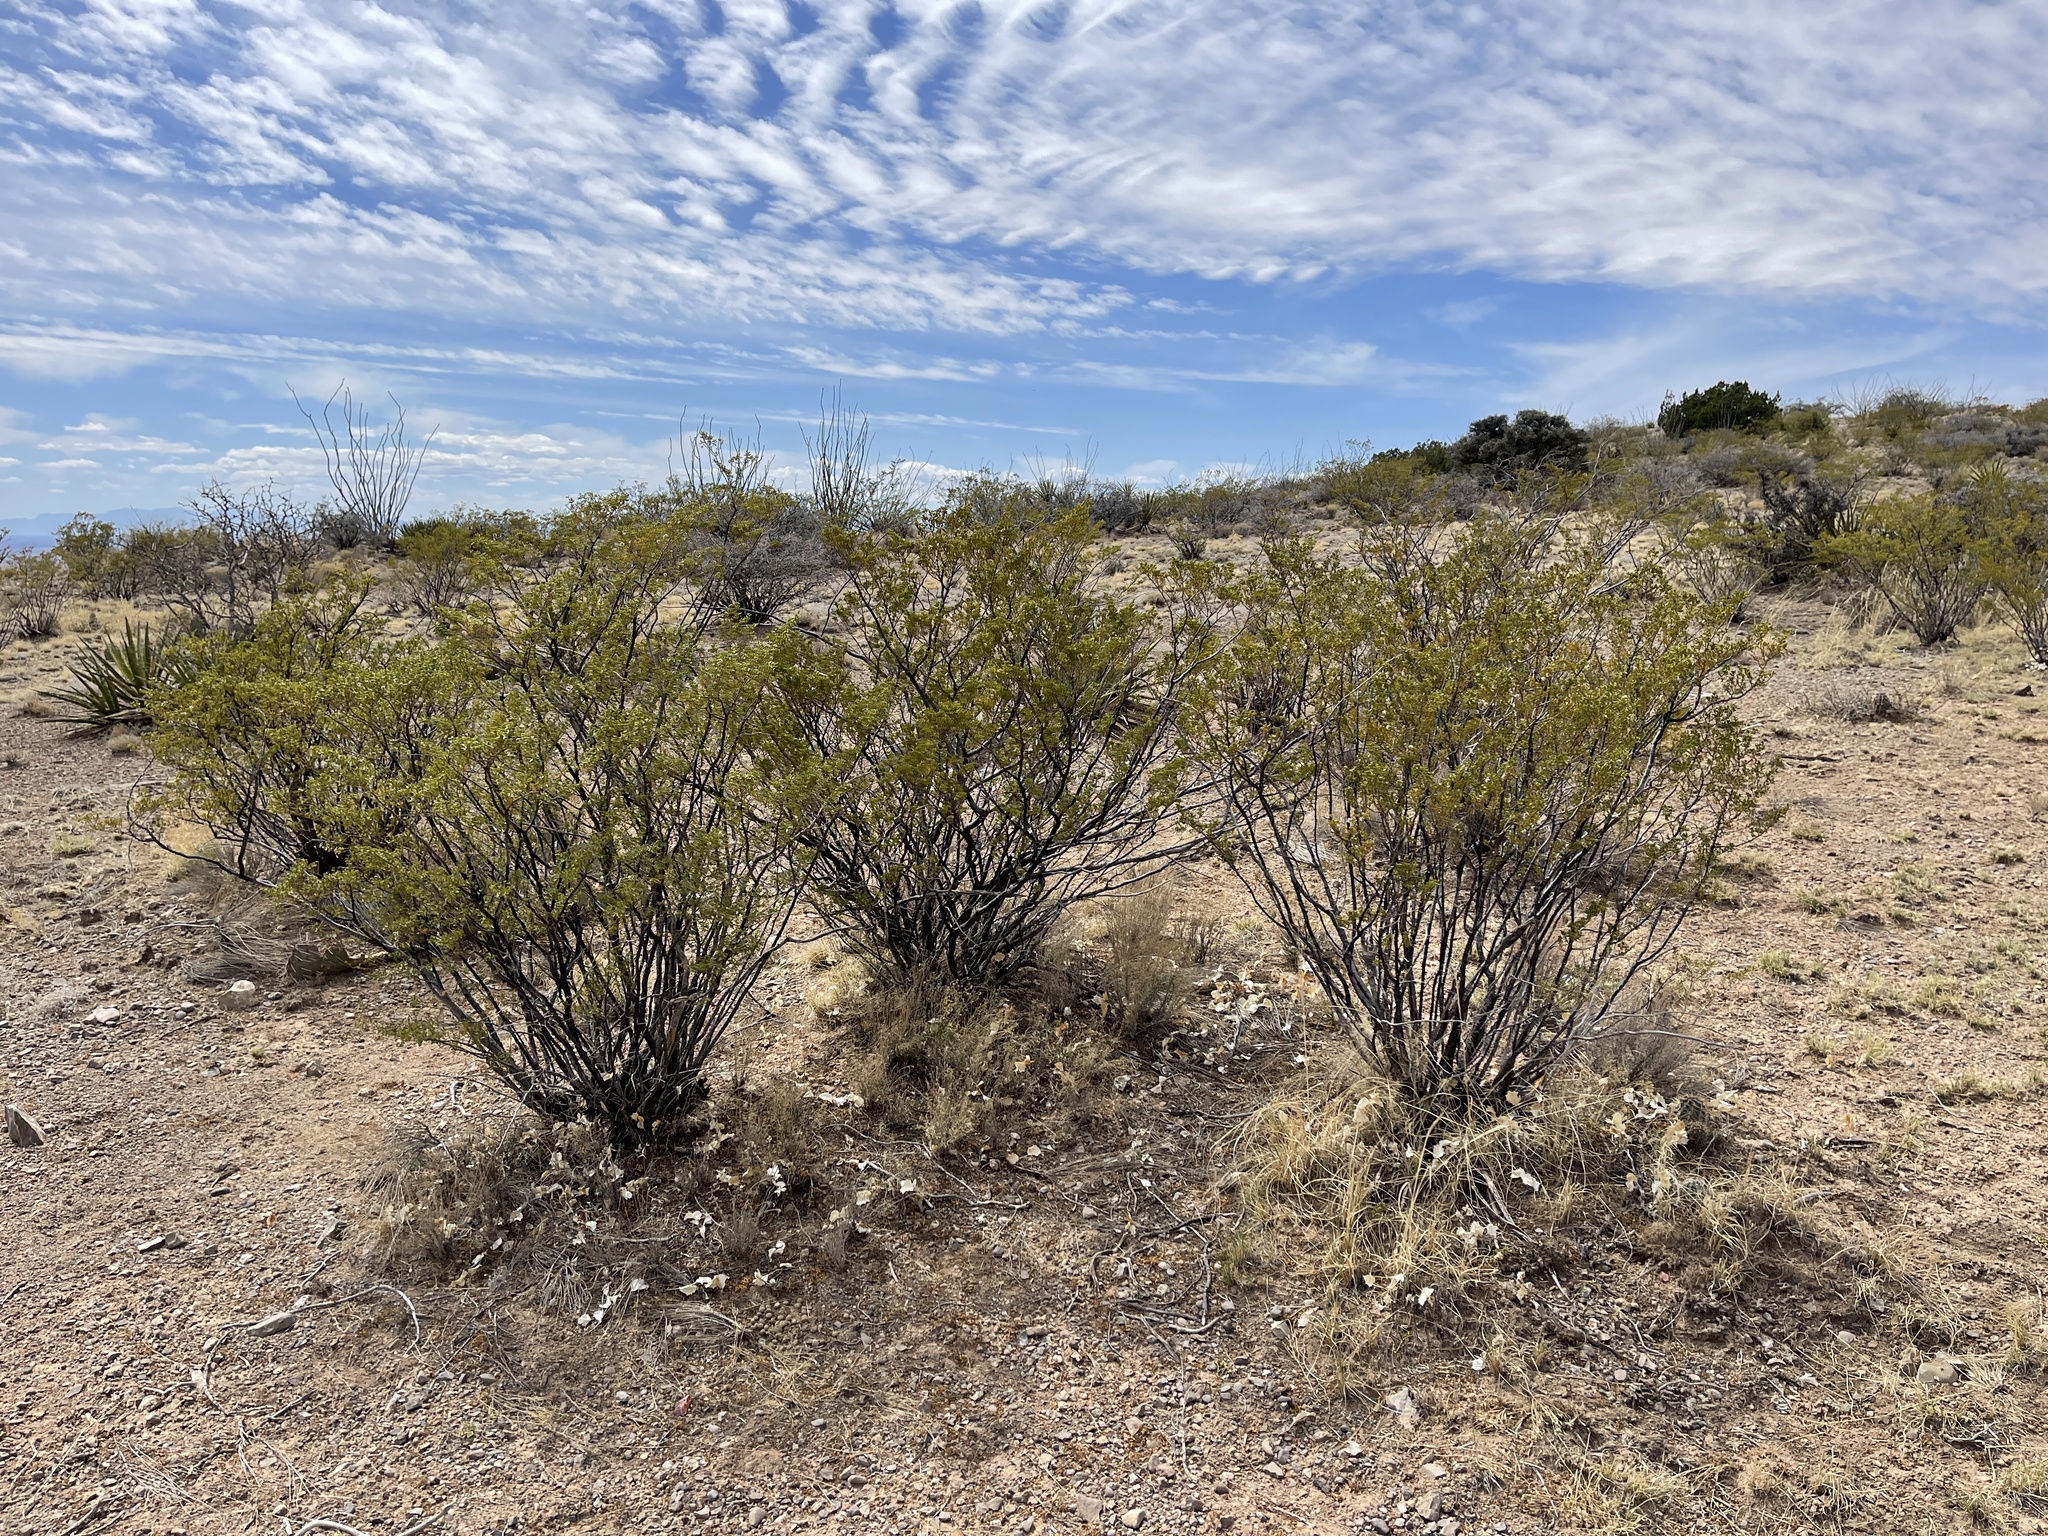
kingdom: Plantae
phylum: Tracheophyta
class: Magnoliopsida
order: Zygophyllales
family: Zygophyllaceae
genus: Larrea
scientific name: Larrea tridentata
